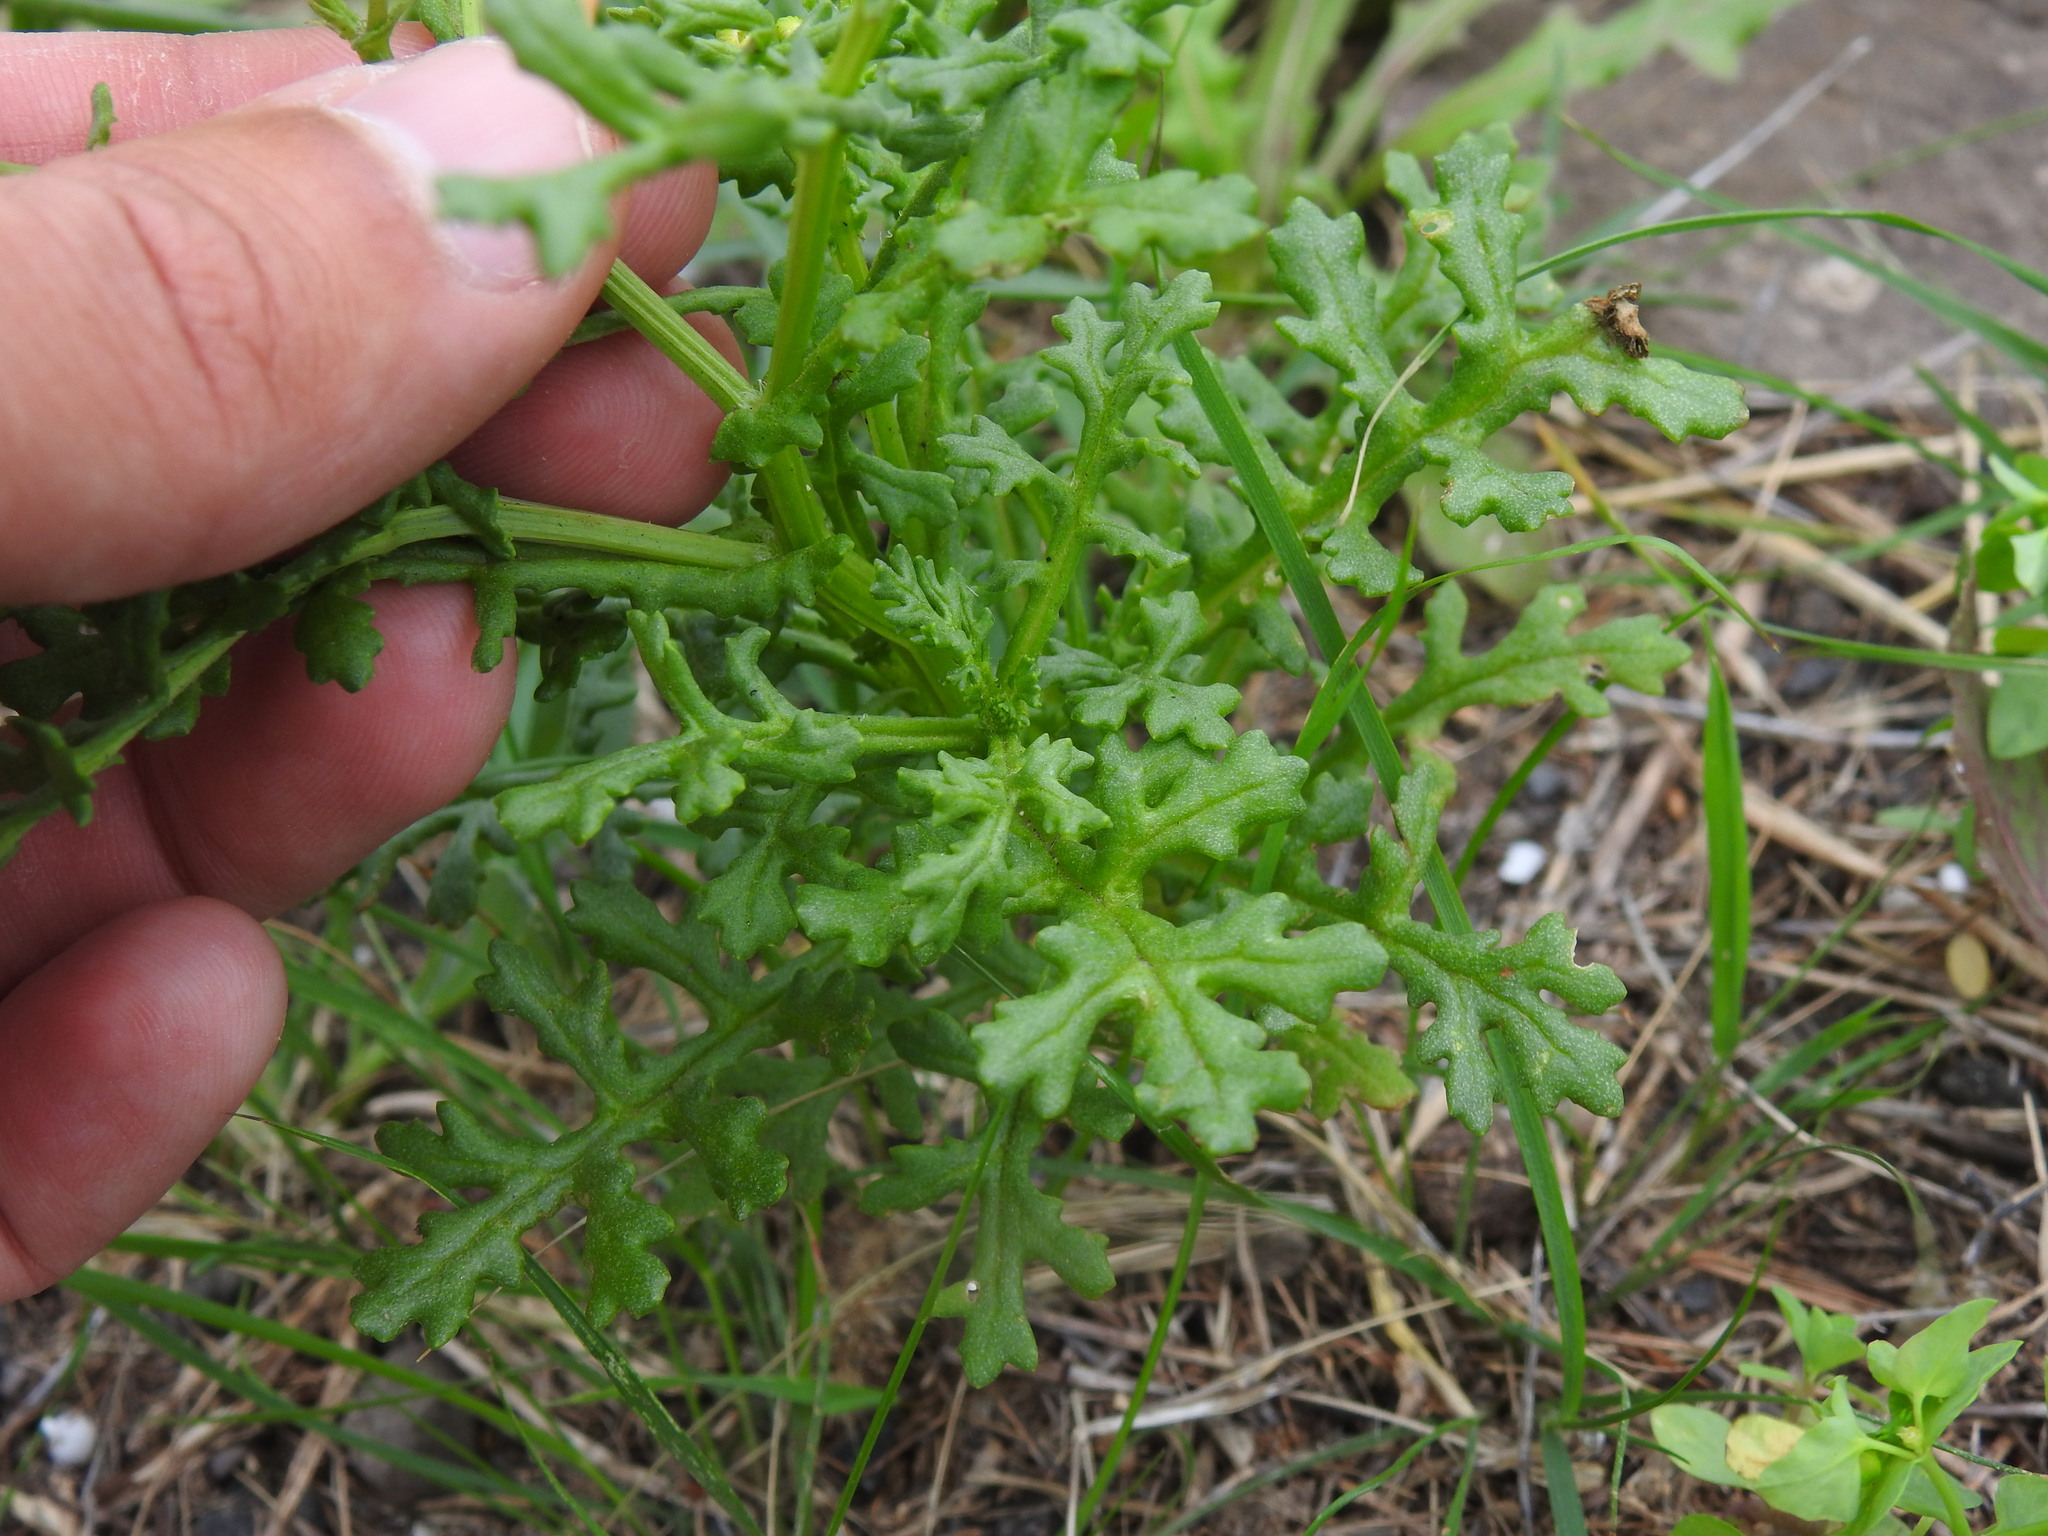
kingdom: Plantae
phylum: Tracheophyta
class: Magnoliopsida
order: Asterales
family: Asteraceae
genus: Senecio
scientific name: Senecio incrassatus
